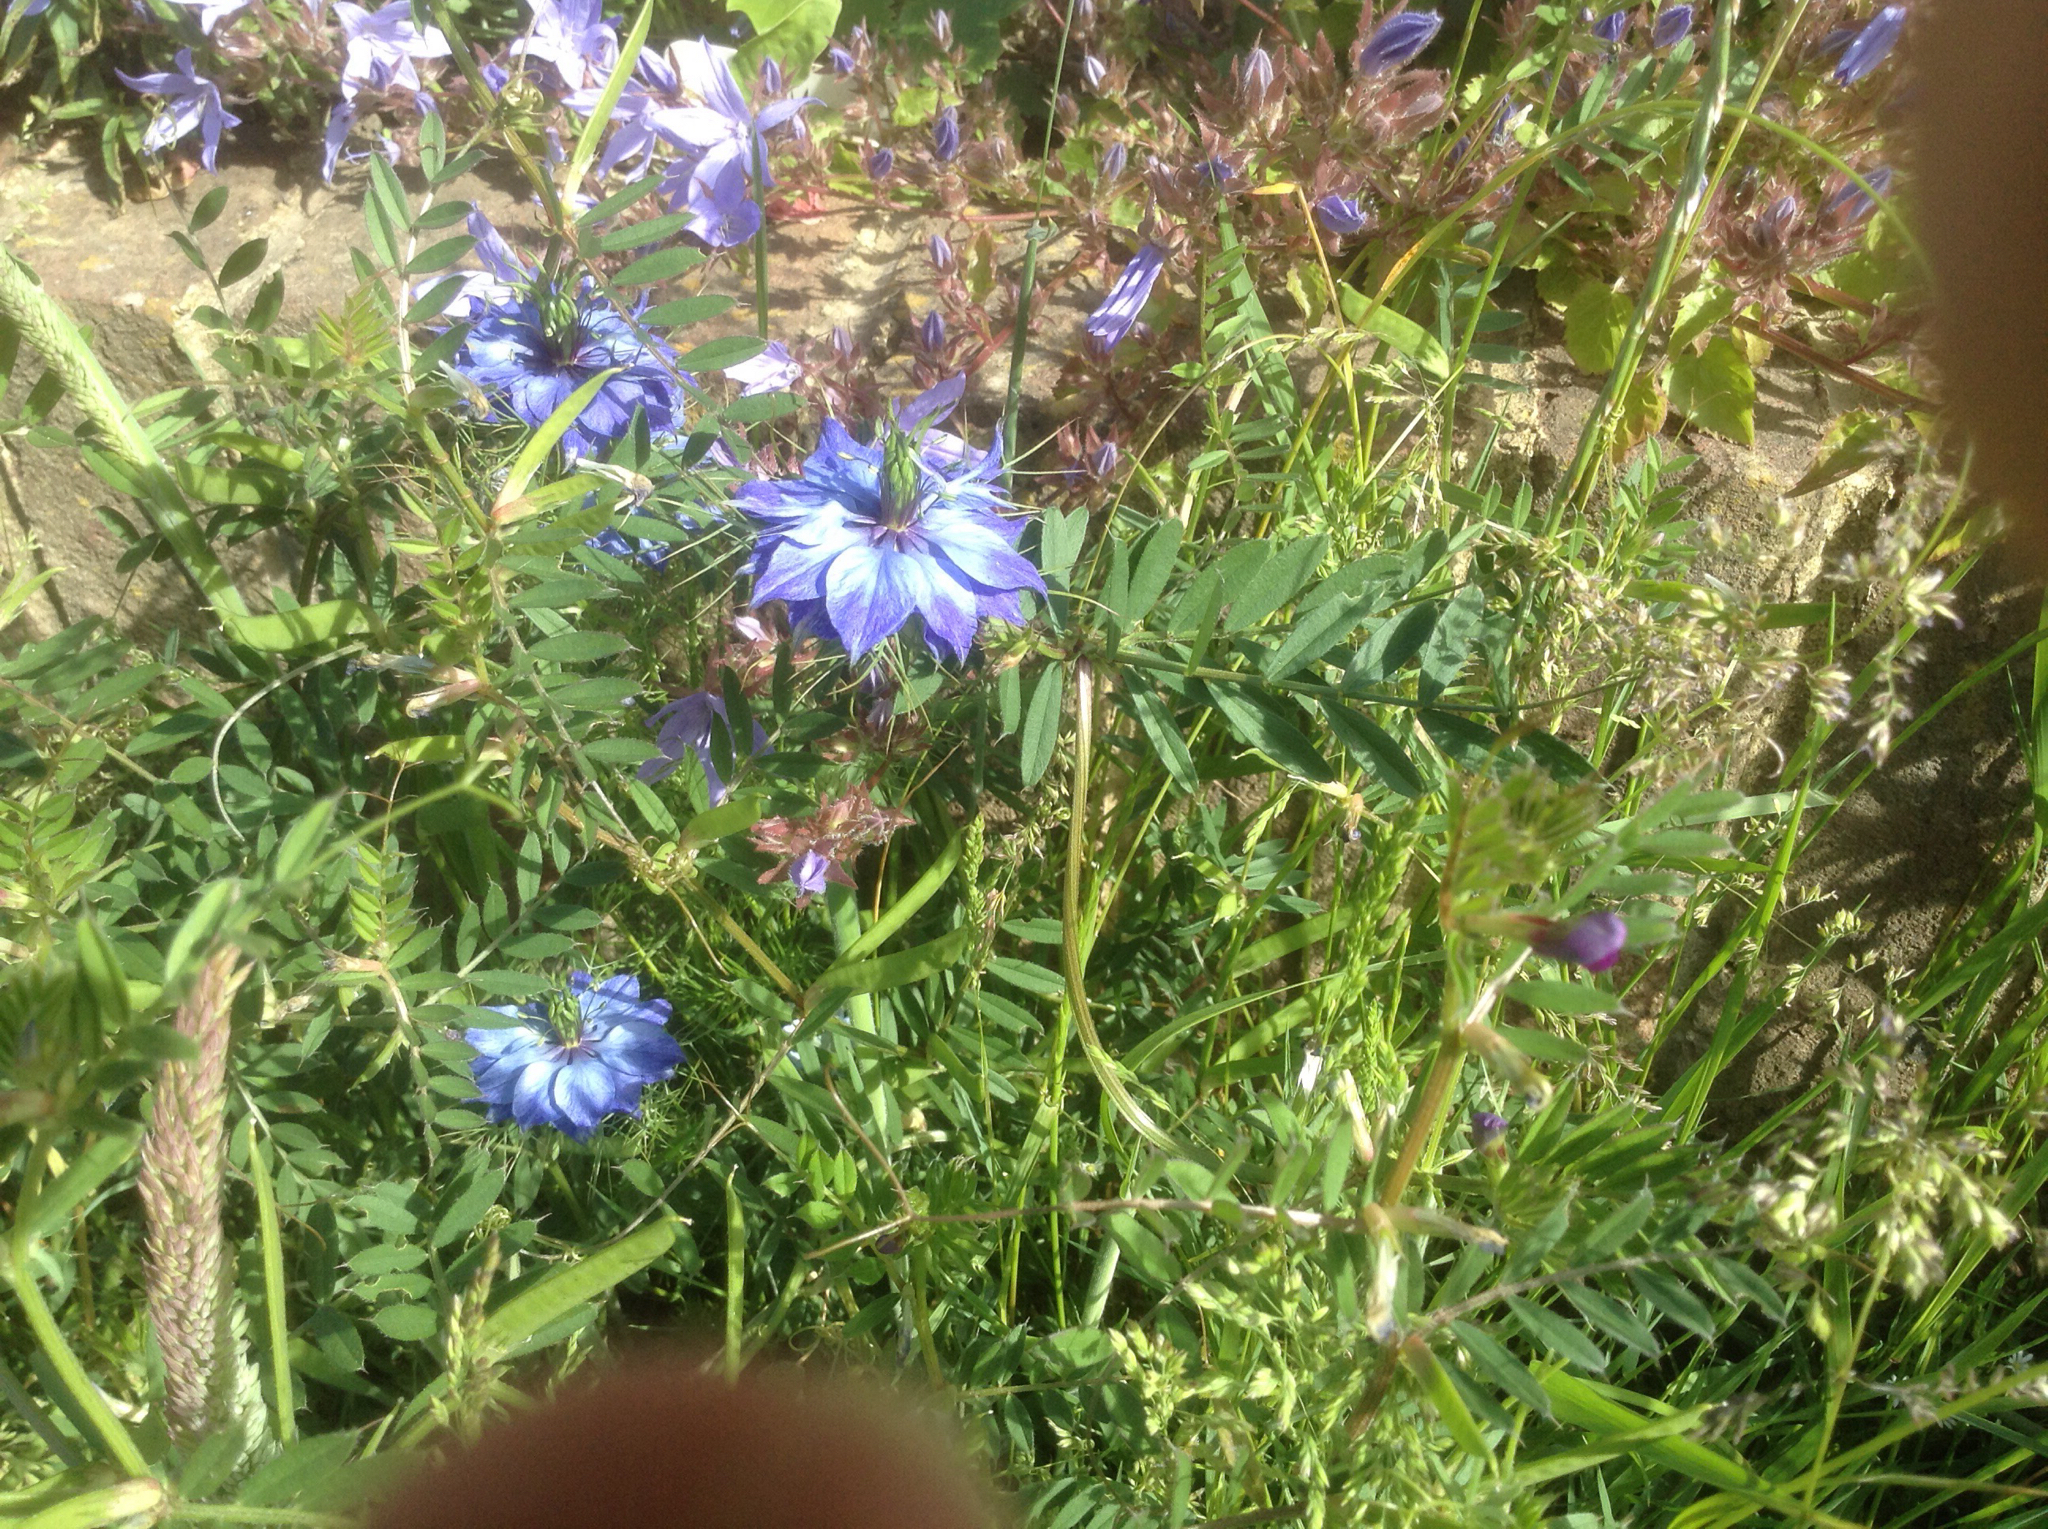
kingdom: Plantae
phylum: Tracheophyta
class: Magnoliopsida
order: Ranunculales
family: Ranunculaceae
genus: Nigella
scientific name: Nigella damascena
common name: Love-in-a-mist
